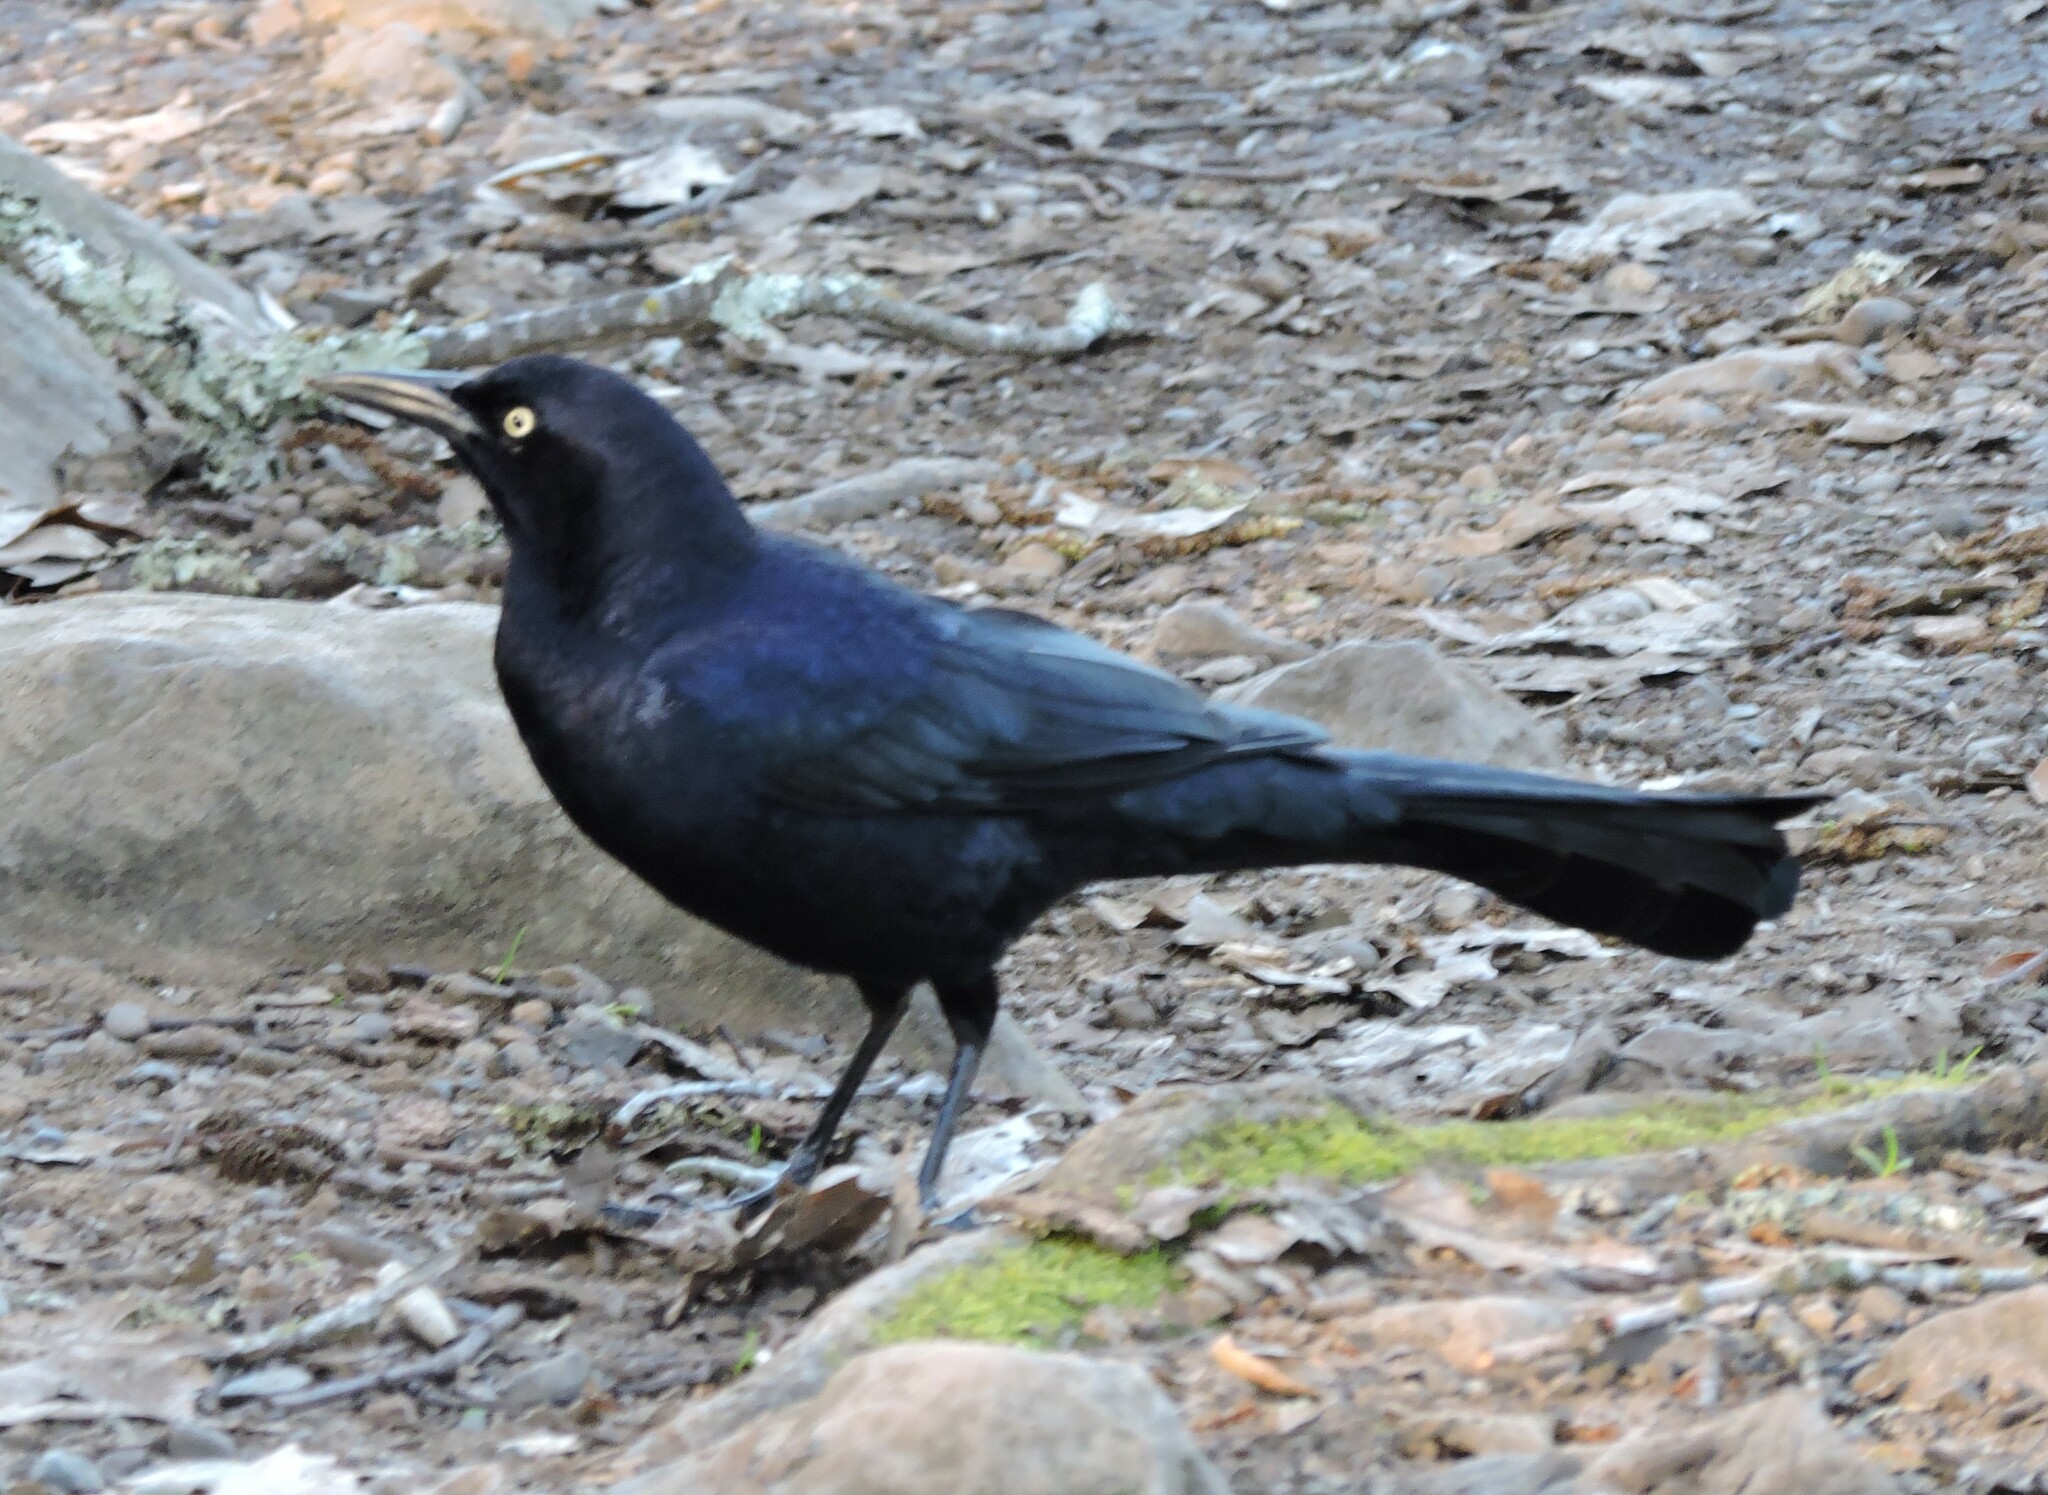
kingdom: Animalia
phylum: Chordata
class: Aves
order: Passeriformes
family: Icteridae
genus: Quiscalus
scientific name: Quiscalus mexicanus
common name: Great-tailed grackle
